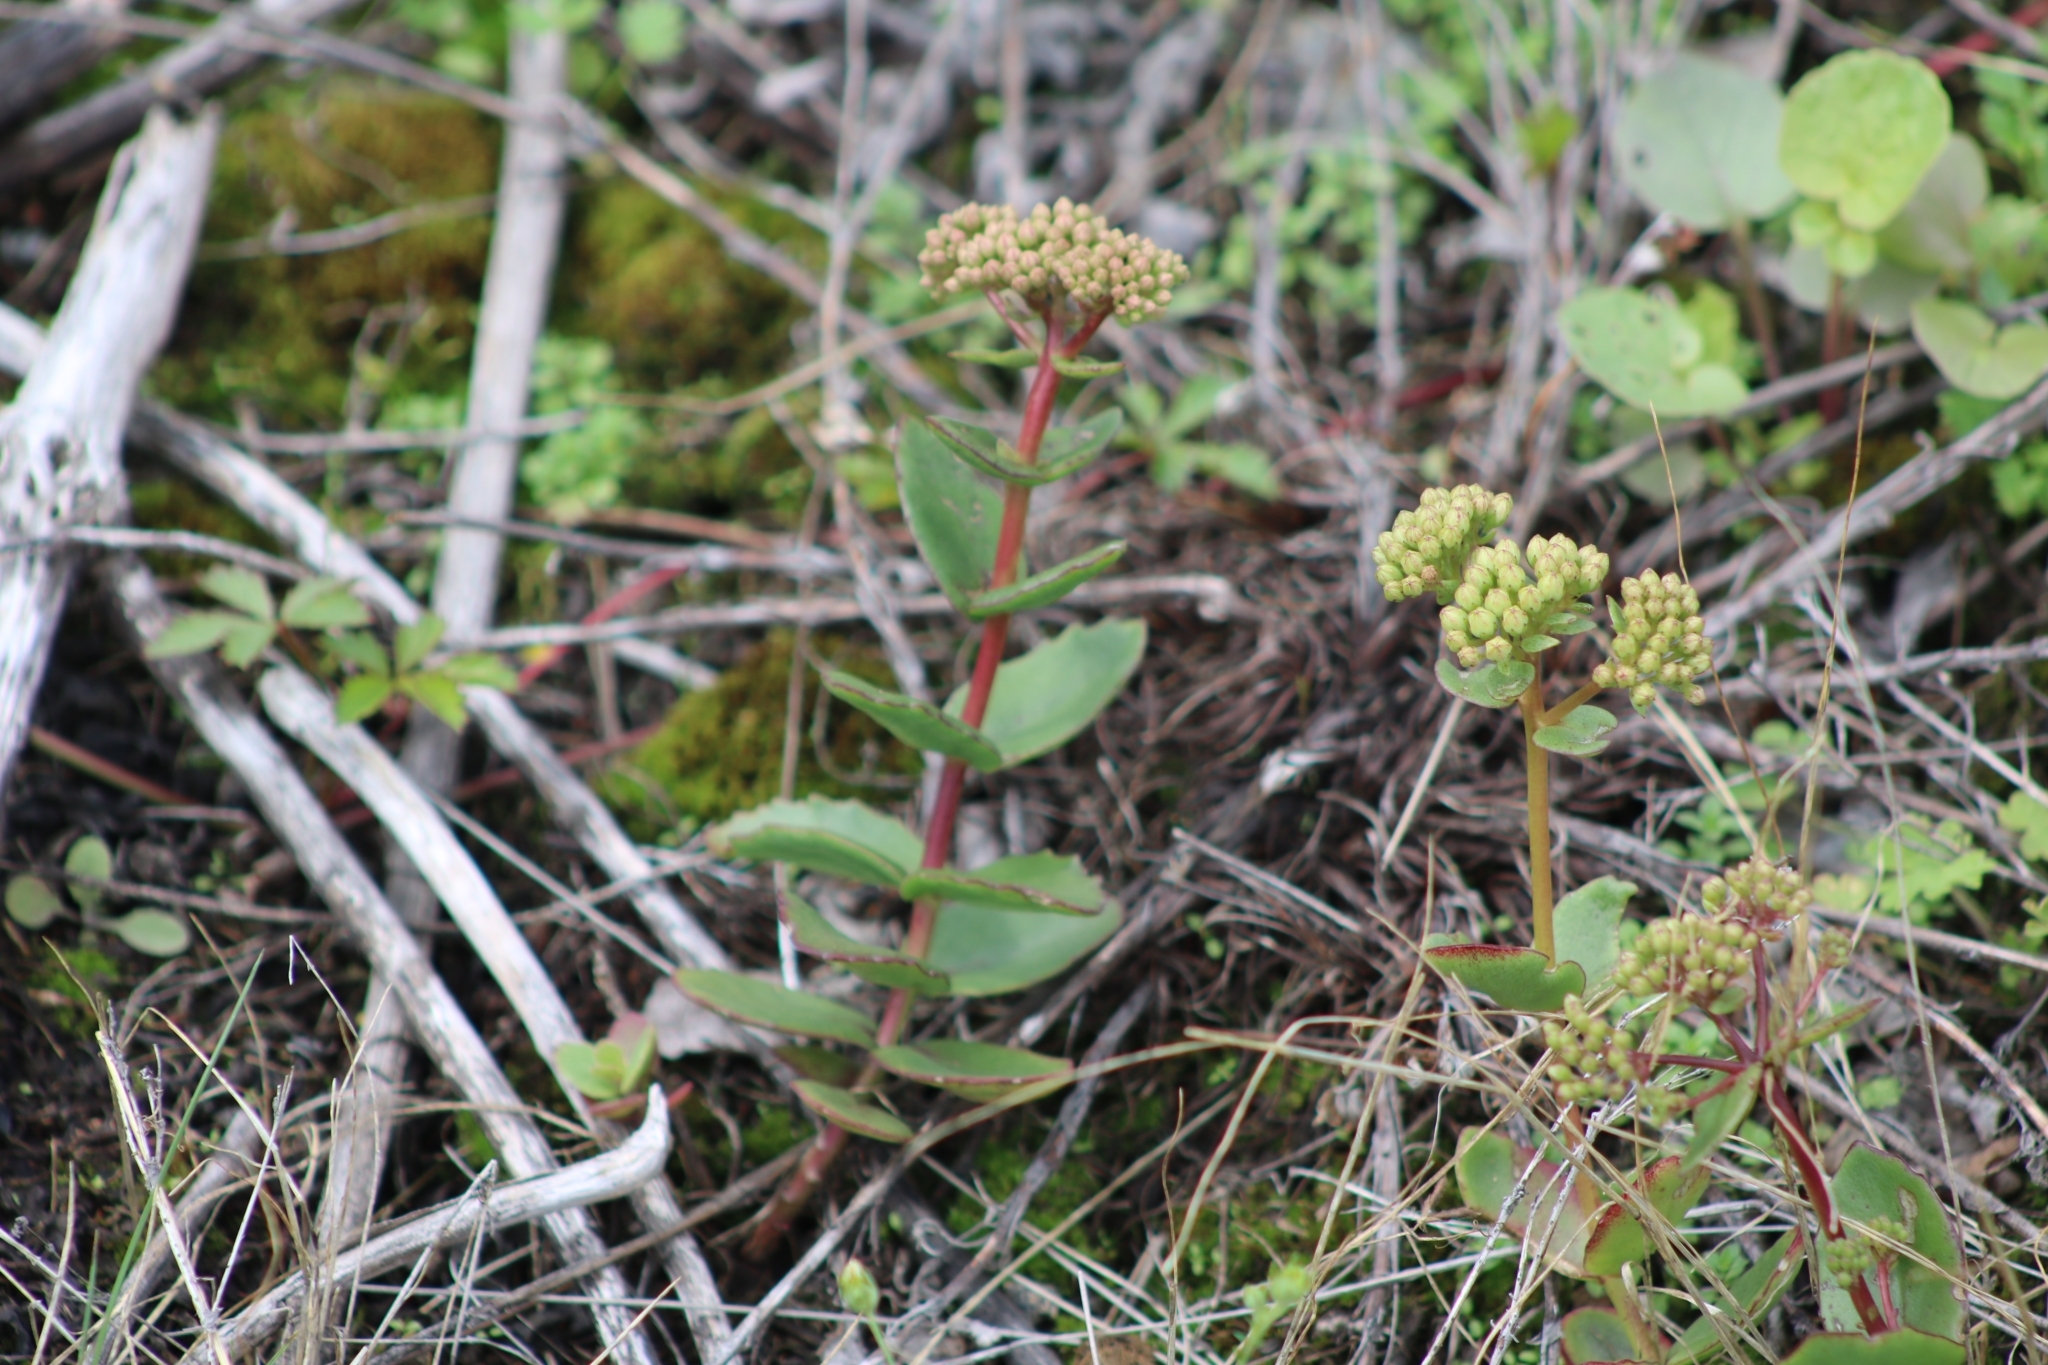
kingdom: Plantae
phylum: Tracheophyta
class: Magnoliopsida
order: Saxifragales
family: Crassulaceae
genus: Hylotelephium
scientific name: Hylotelephium maximum
